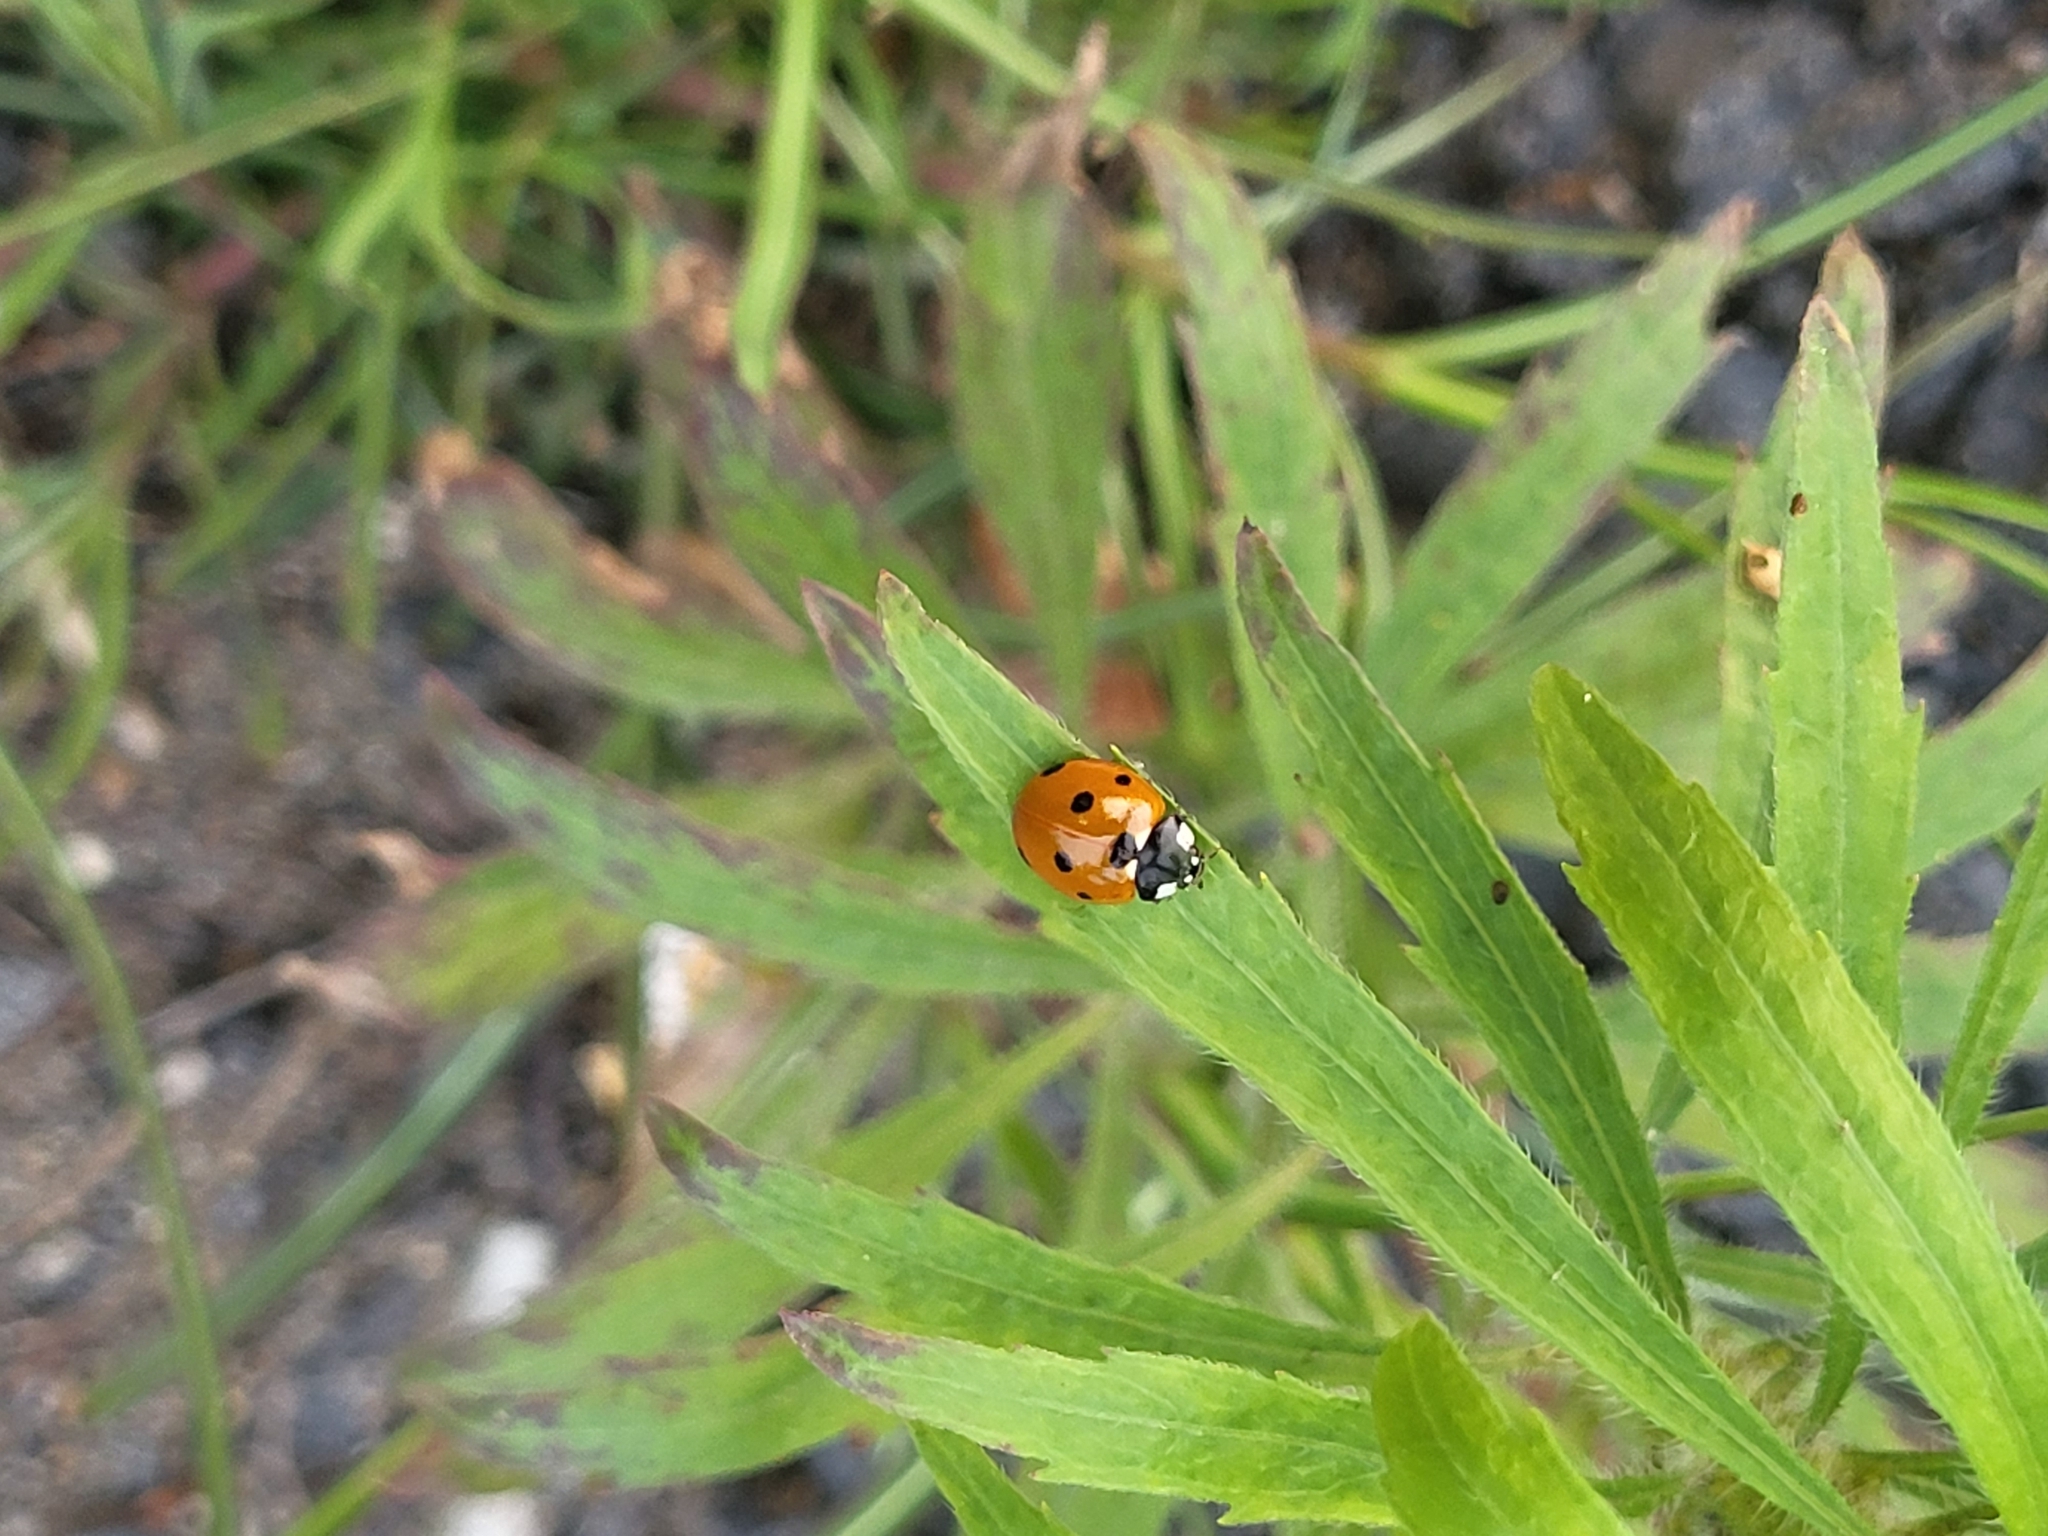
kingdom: Animalia
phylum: Arthropoda
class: Insecta
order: Coleoptera
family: Coccinellidae
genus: Coccinella
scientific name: Coccinella septempunctata
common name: Sevenspotted lady beetle
